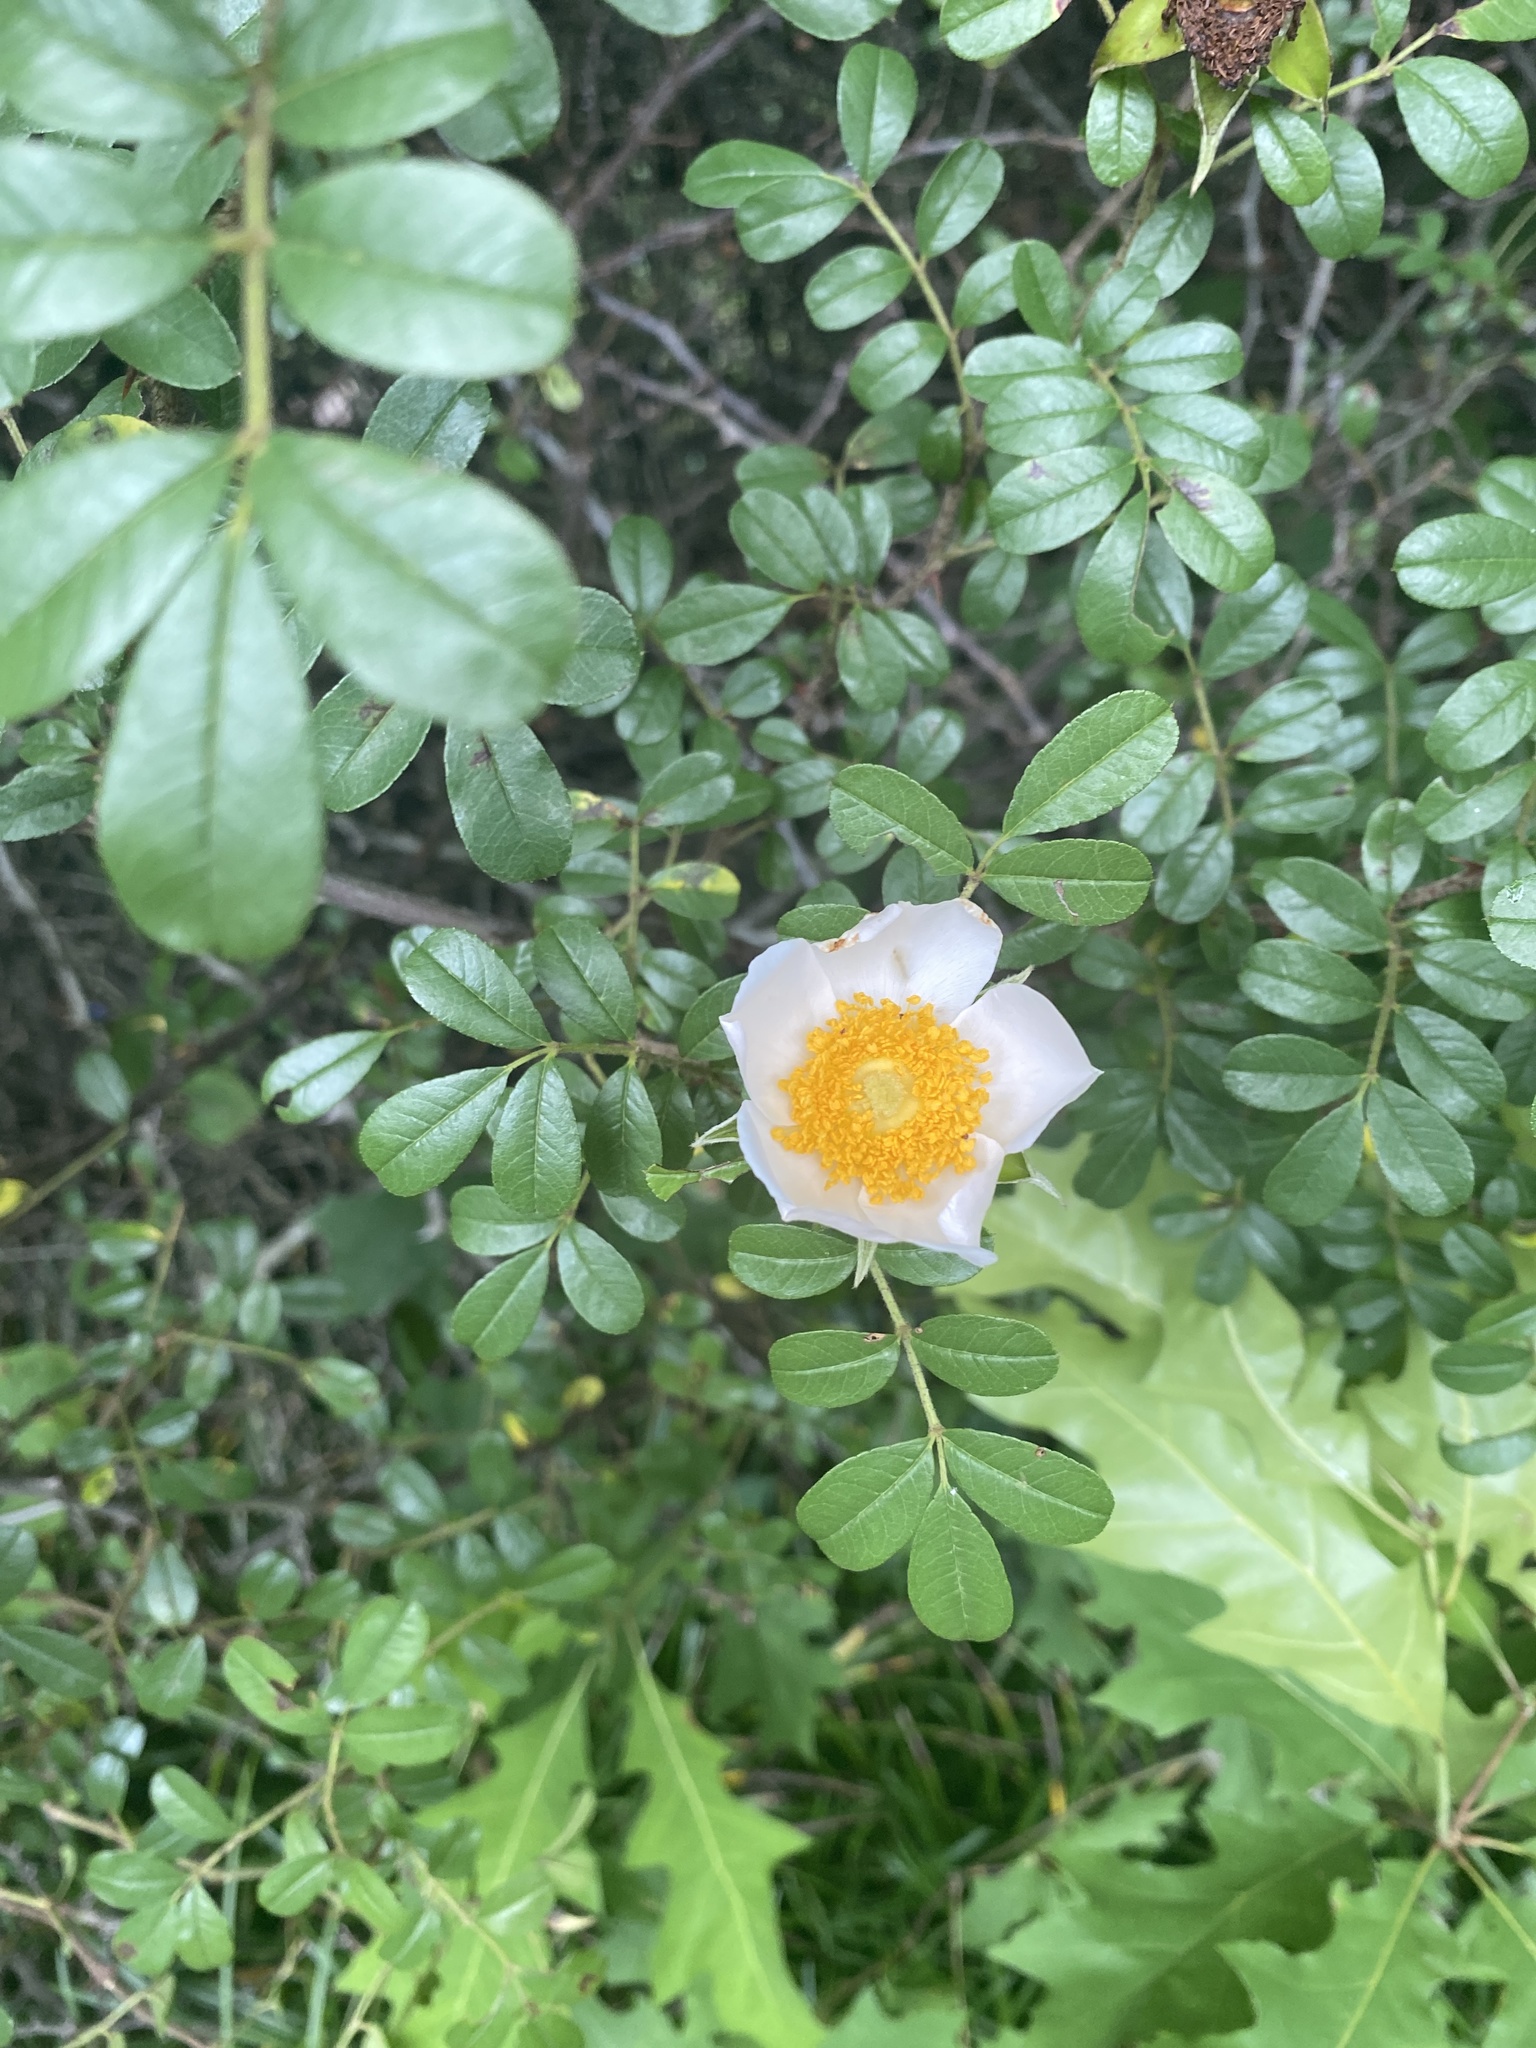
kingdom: Plantae
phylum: Tracheophyta
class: Magnoliopsida
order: Rosales
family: Rosaceae
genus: Rosa
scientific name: Rosa bracteata
